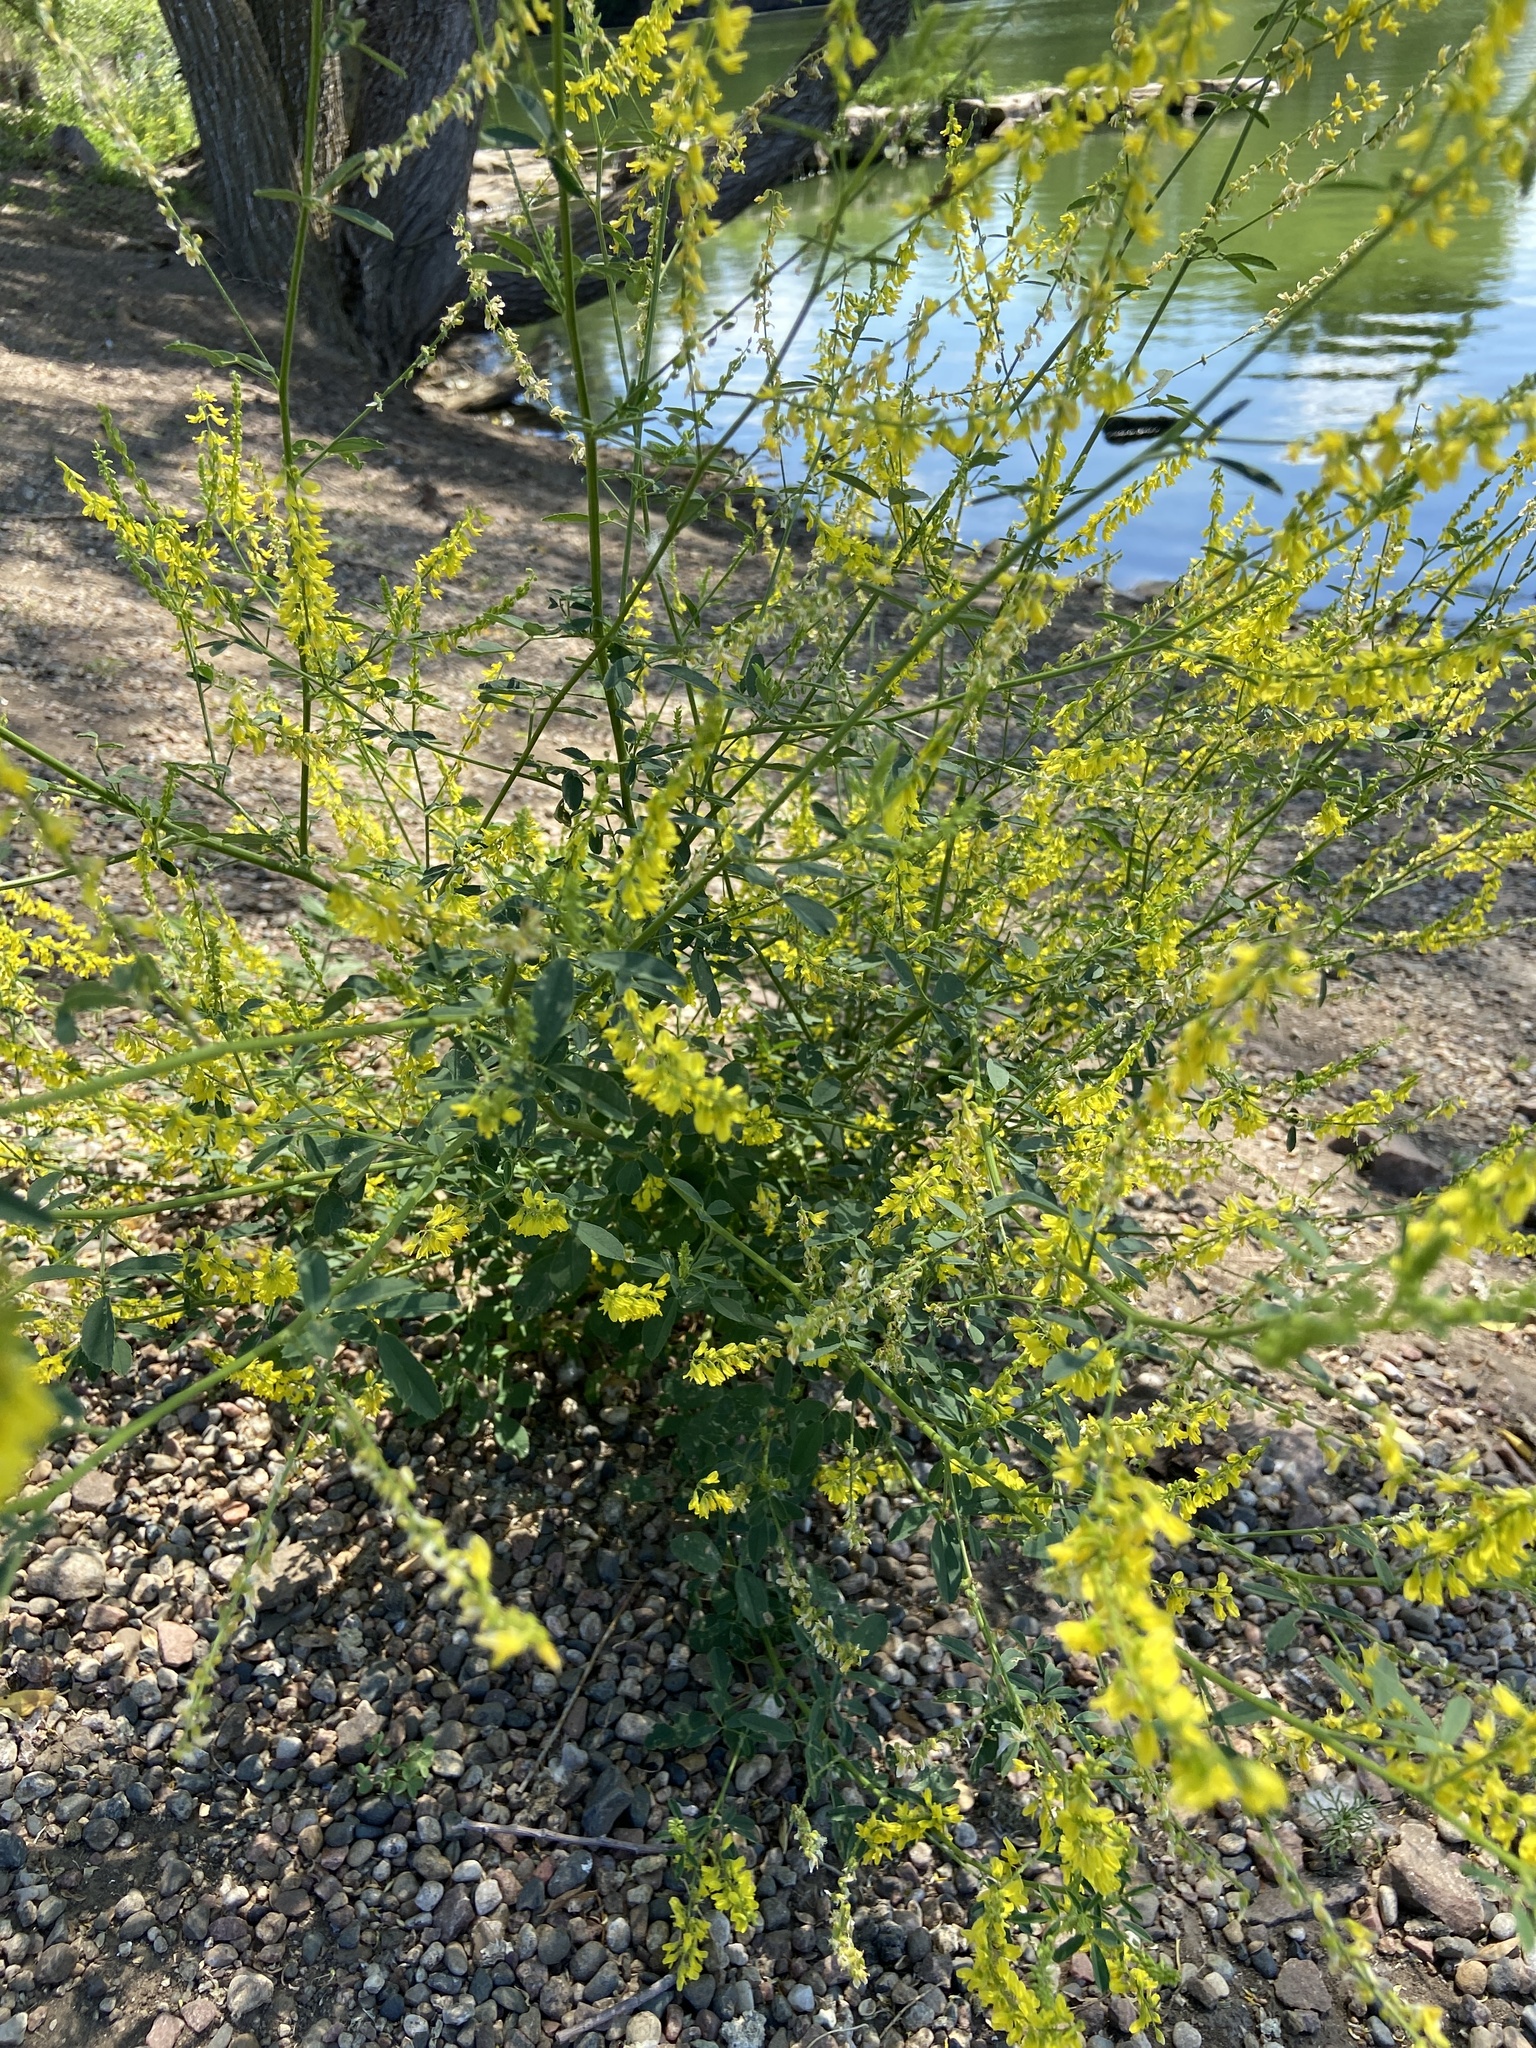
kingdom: Plantae
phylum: Tracheophyta
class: Magnoliopsida
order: Fabales
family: Fabaceae
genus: Melilotus
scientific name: Melilotus officinalis
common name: Sweetclover
